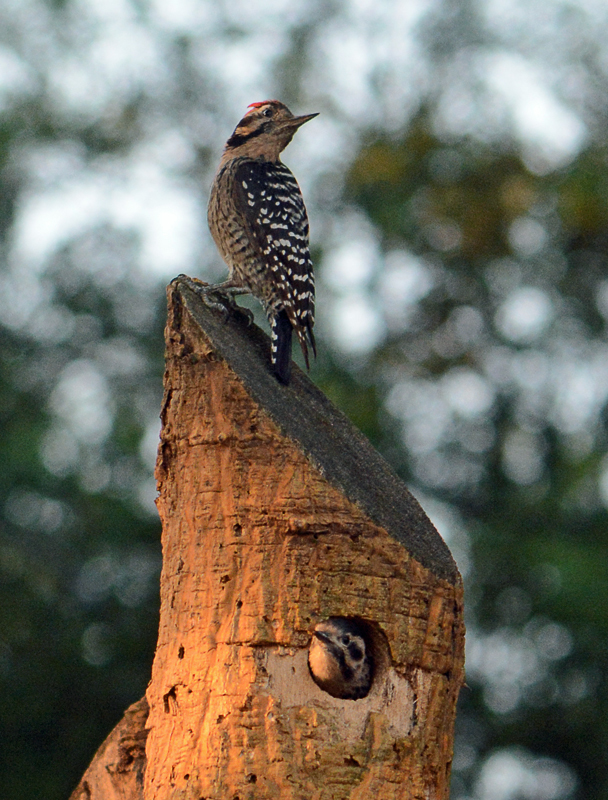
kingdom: Animalia
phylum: Chordata
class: Aves
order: Piciformes
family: Picidae
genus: Dryobates
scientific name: Dryobates scalaris
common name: Ladder-backed woodpecker
